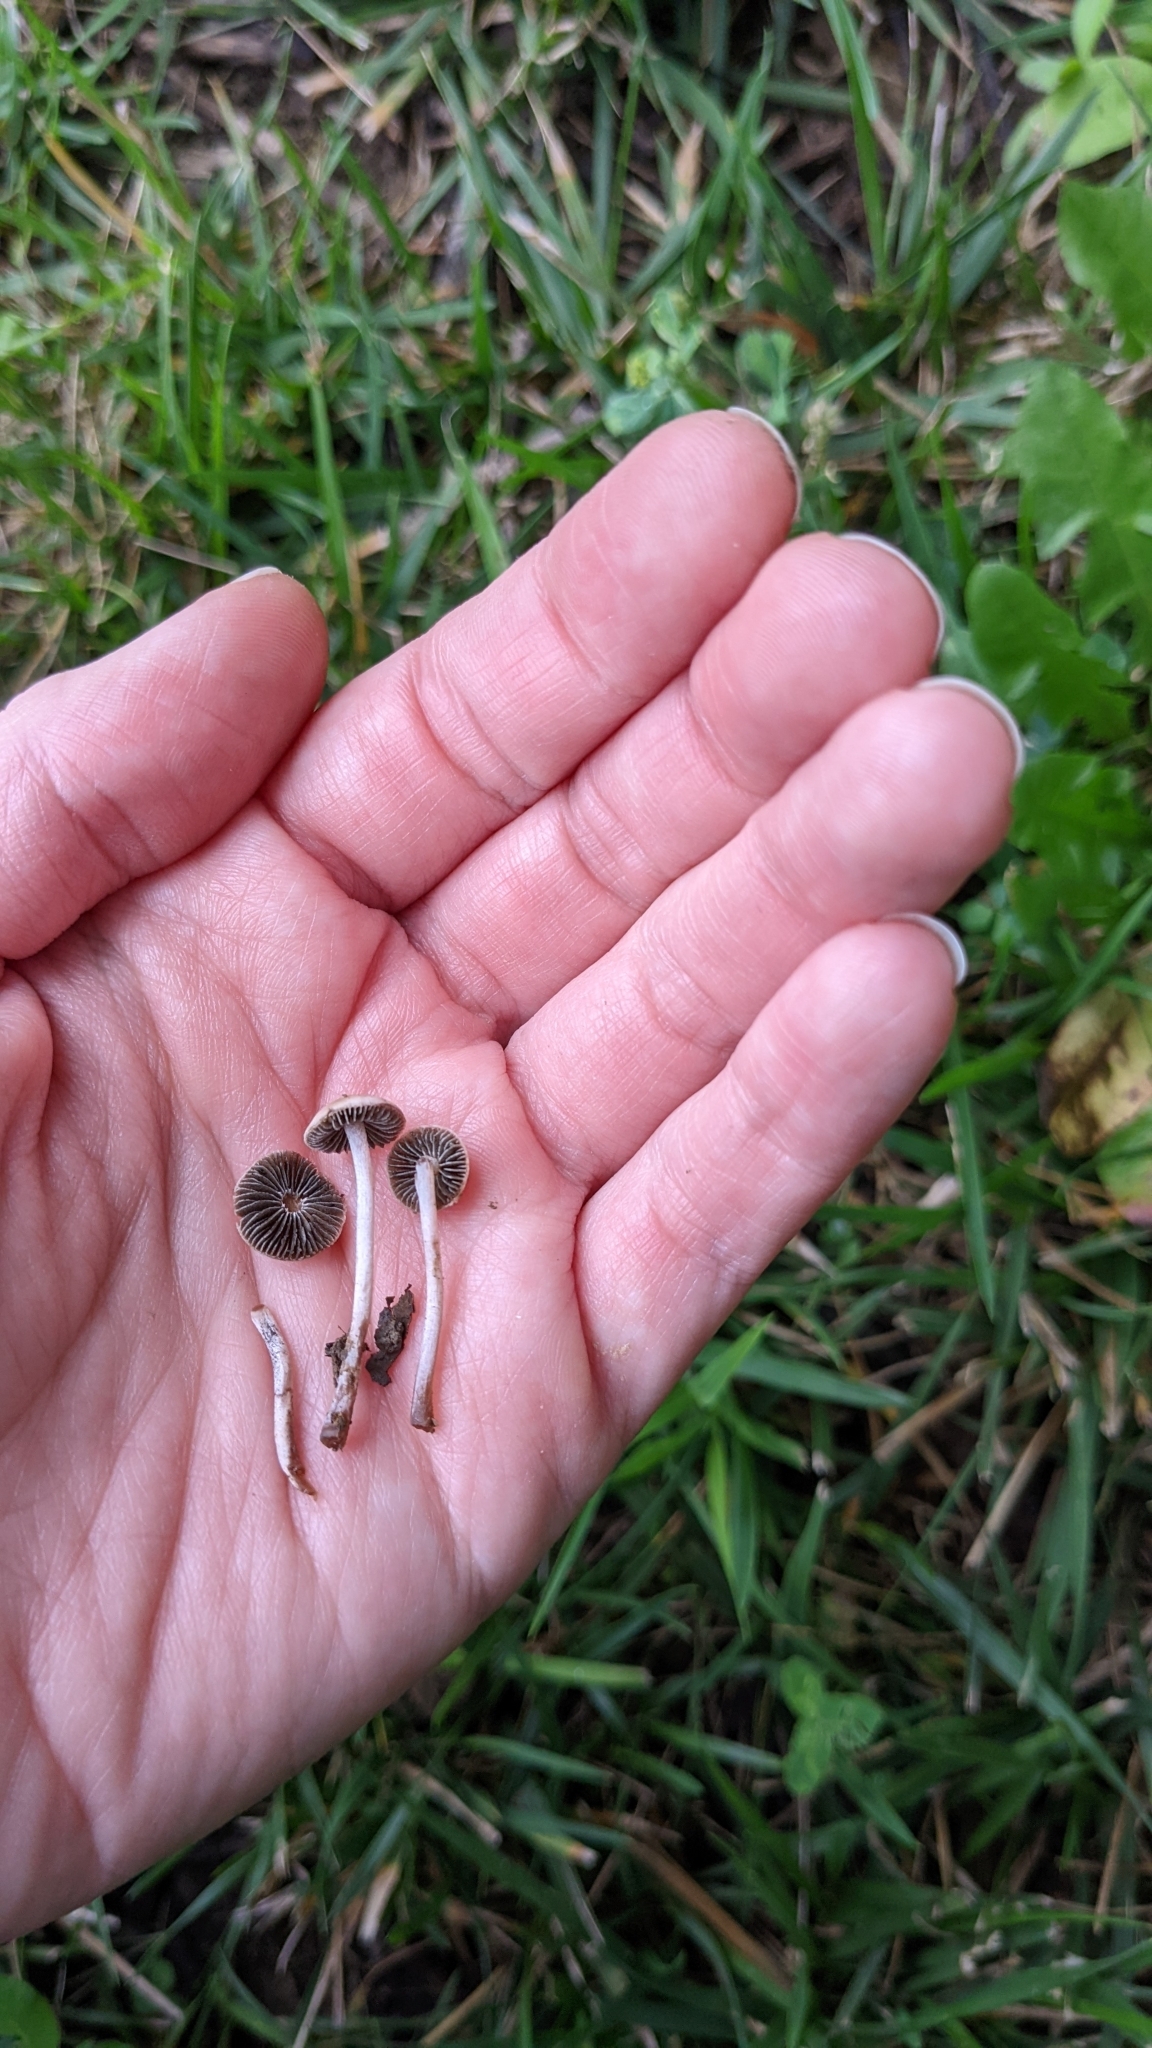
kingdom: Fungi
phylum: Basidiomycota
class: Agaricomycetes
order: Agaricales
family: Bolbitiaceae
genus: Panaeolina
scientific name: Panaeolina foenisecii
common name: Brown hay cap
